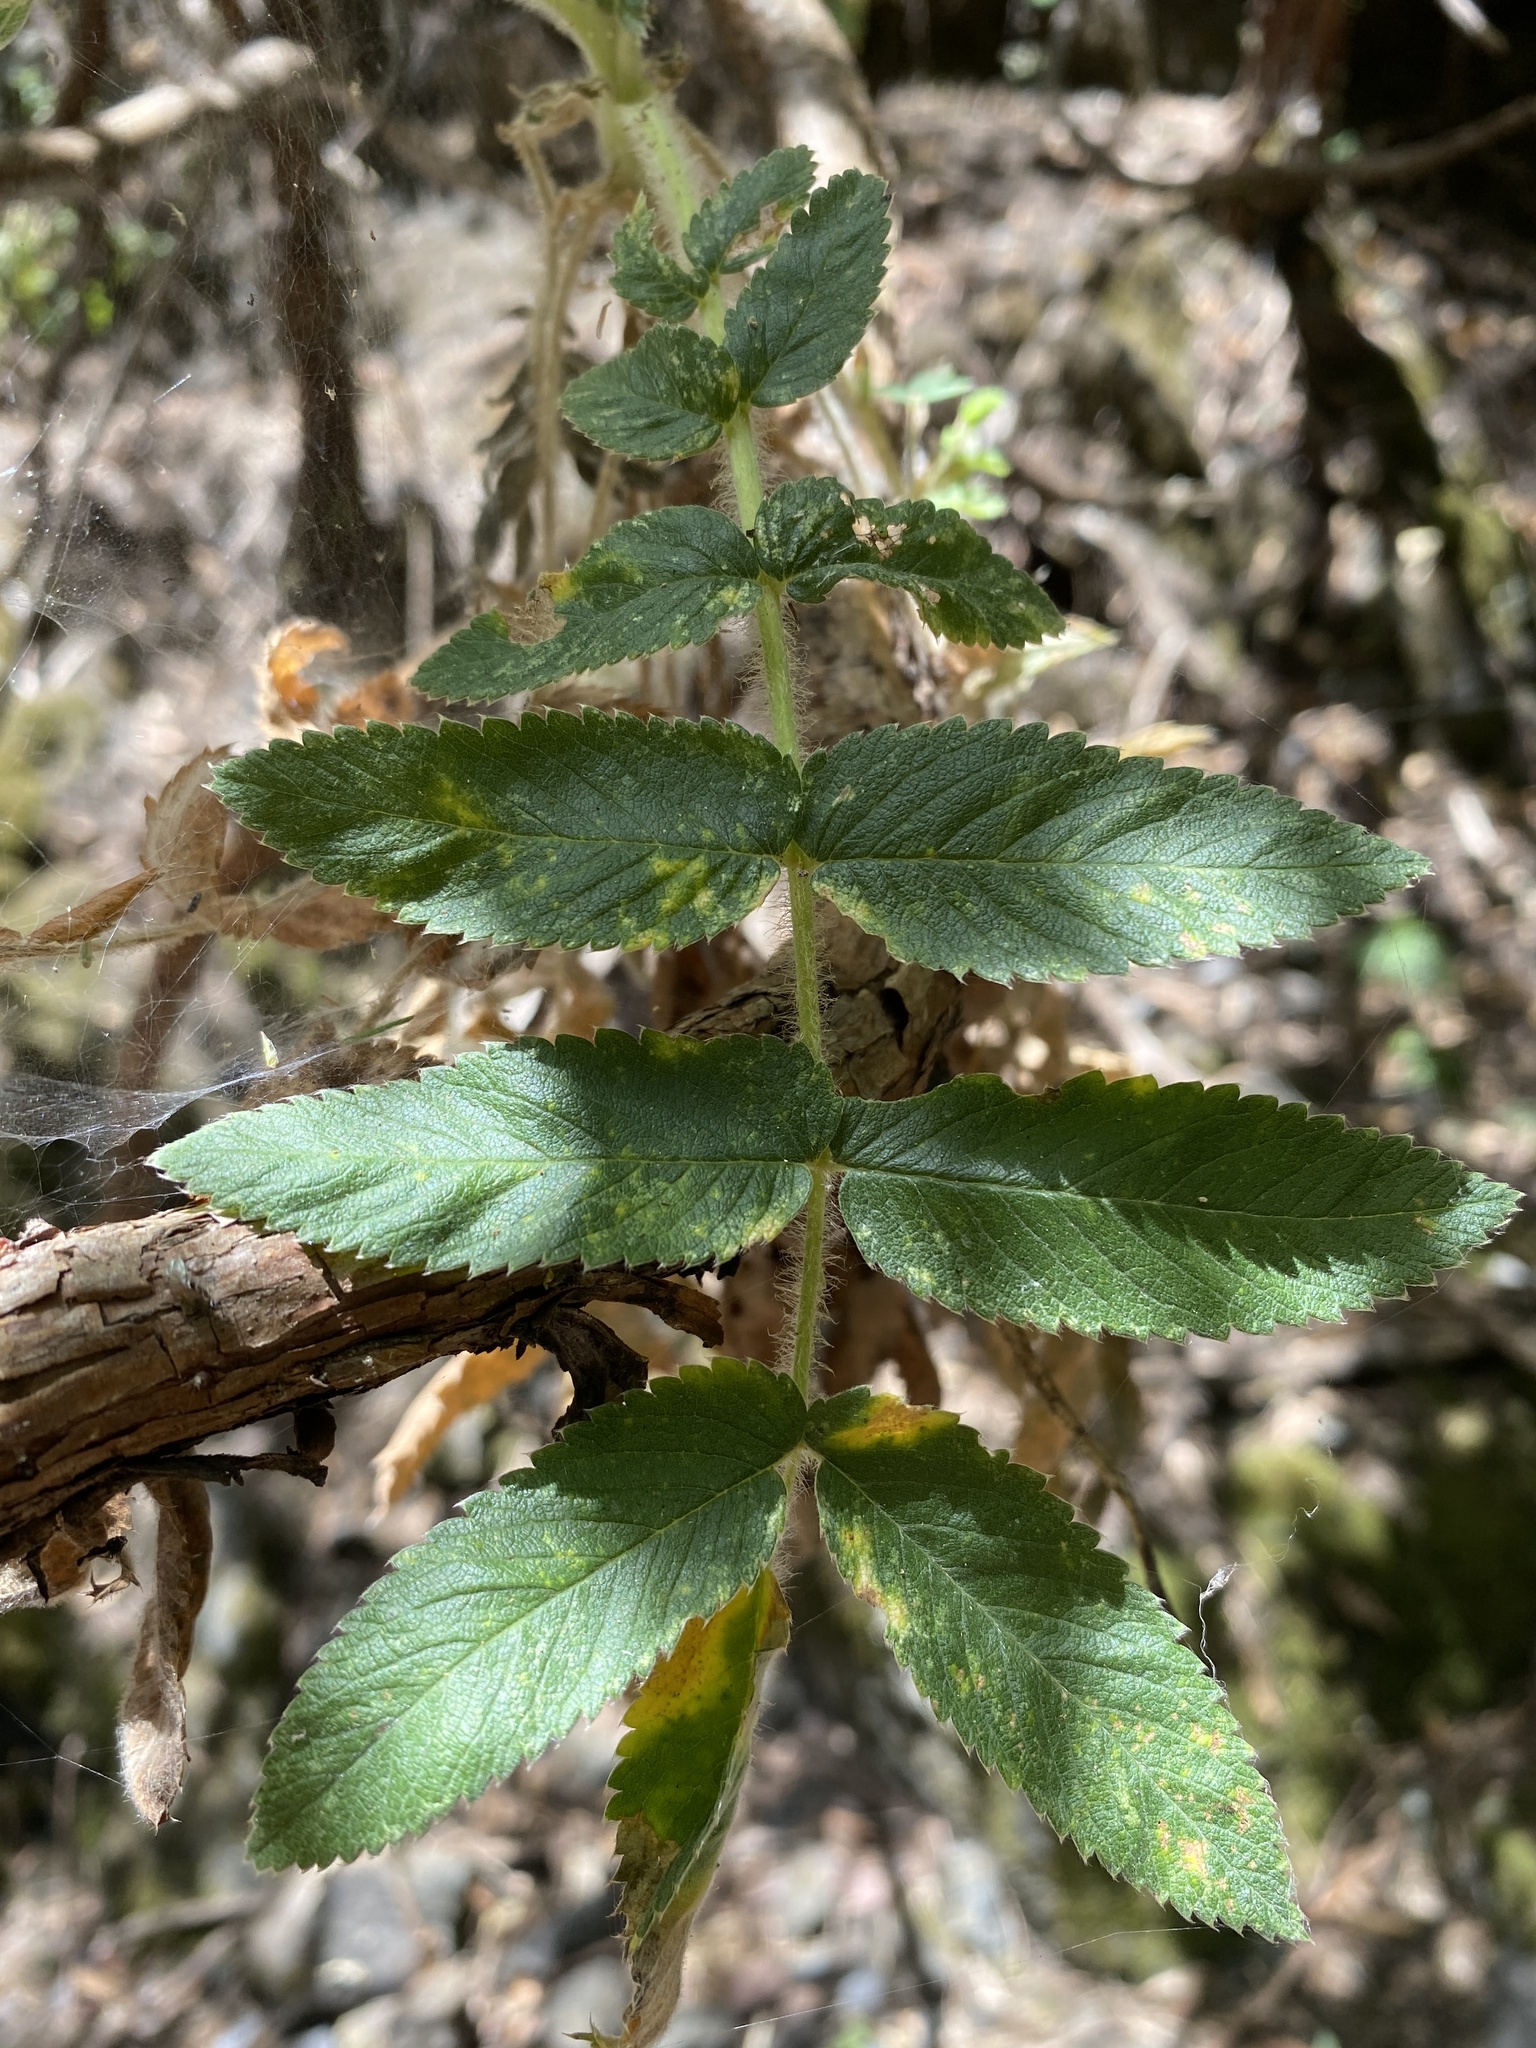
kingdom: Plantae
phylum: Tracheophyta
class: Magnoliopsida
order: Rosales
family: Rosaceae
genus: Bencomia
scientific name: Bencomia caudata
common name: Bencomia
